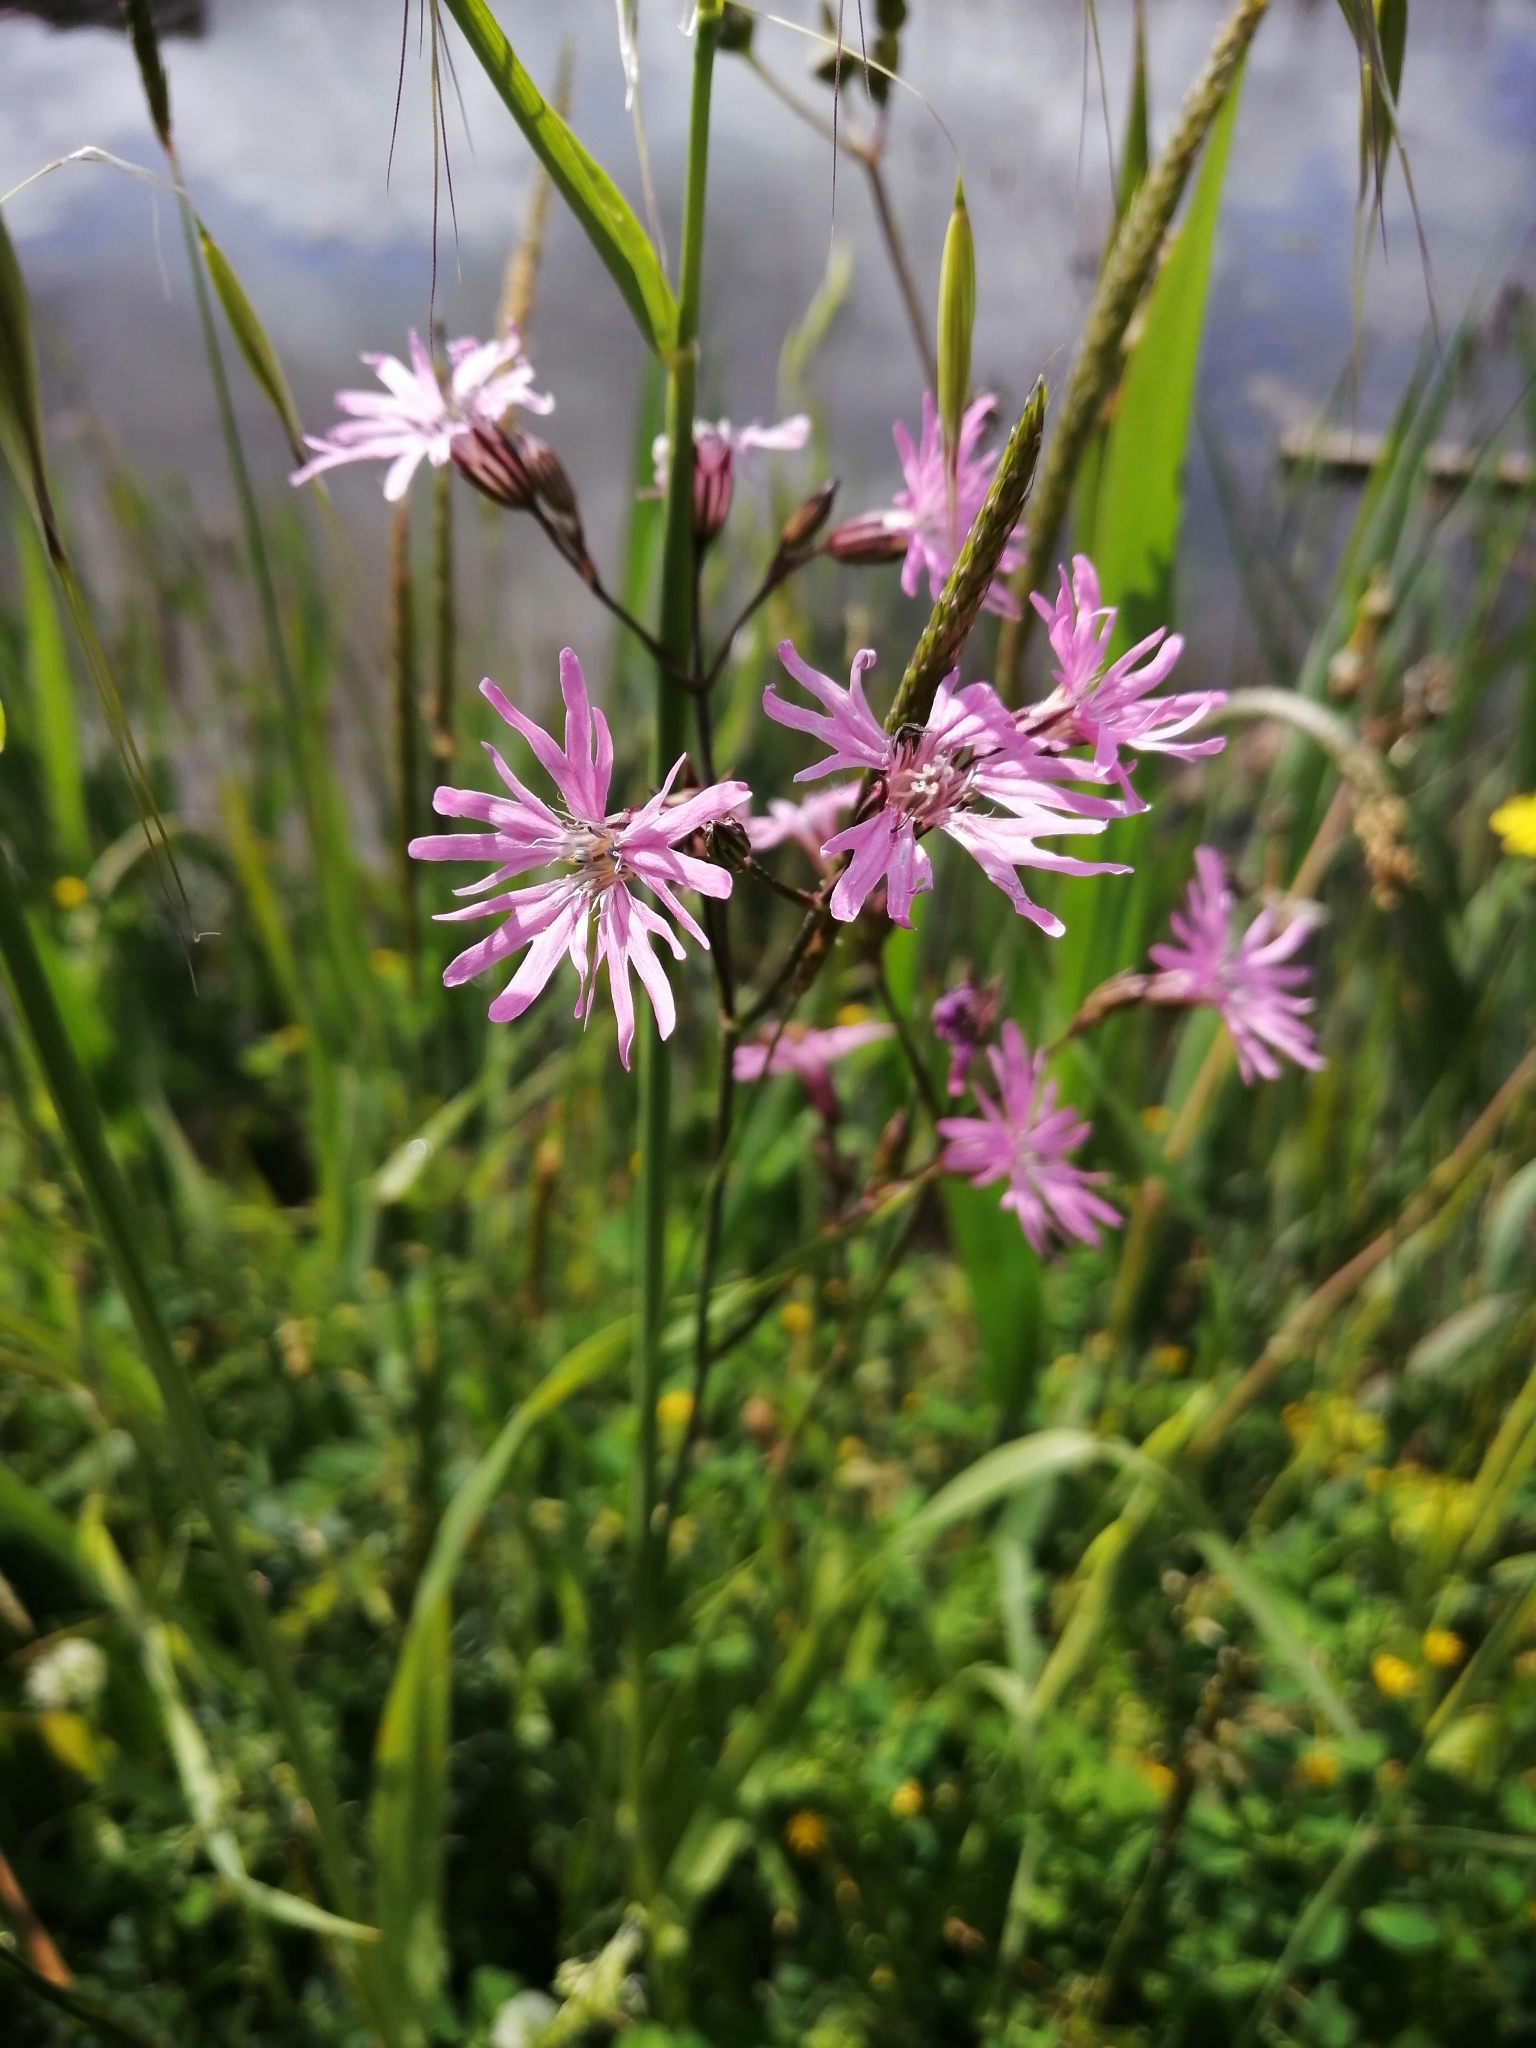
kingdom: Plantae
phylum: Tracheophyta
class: Magnoliopsida
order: Caryophyllales
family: Caryophyllaceae
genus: Silene
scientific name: Silene flos-cuculi
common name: Ragged-robin
